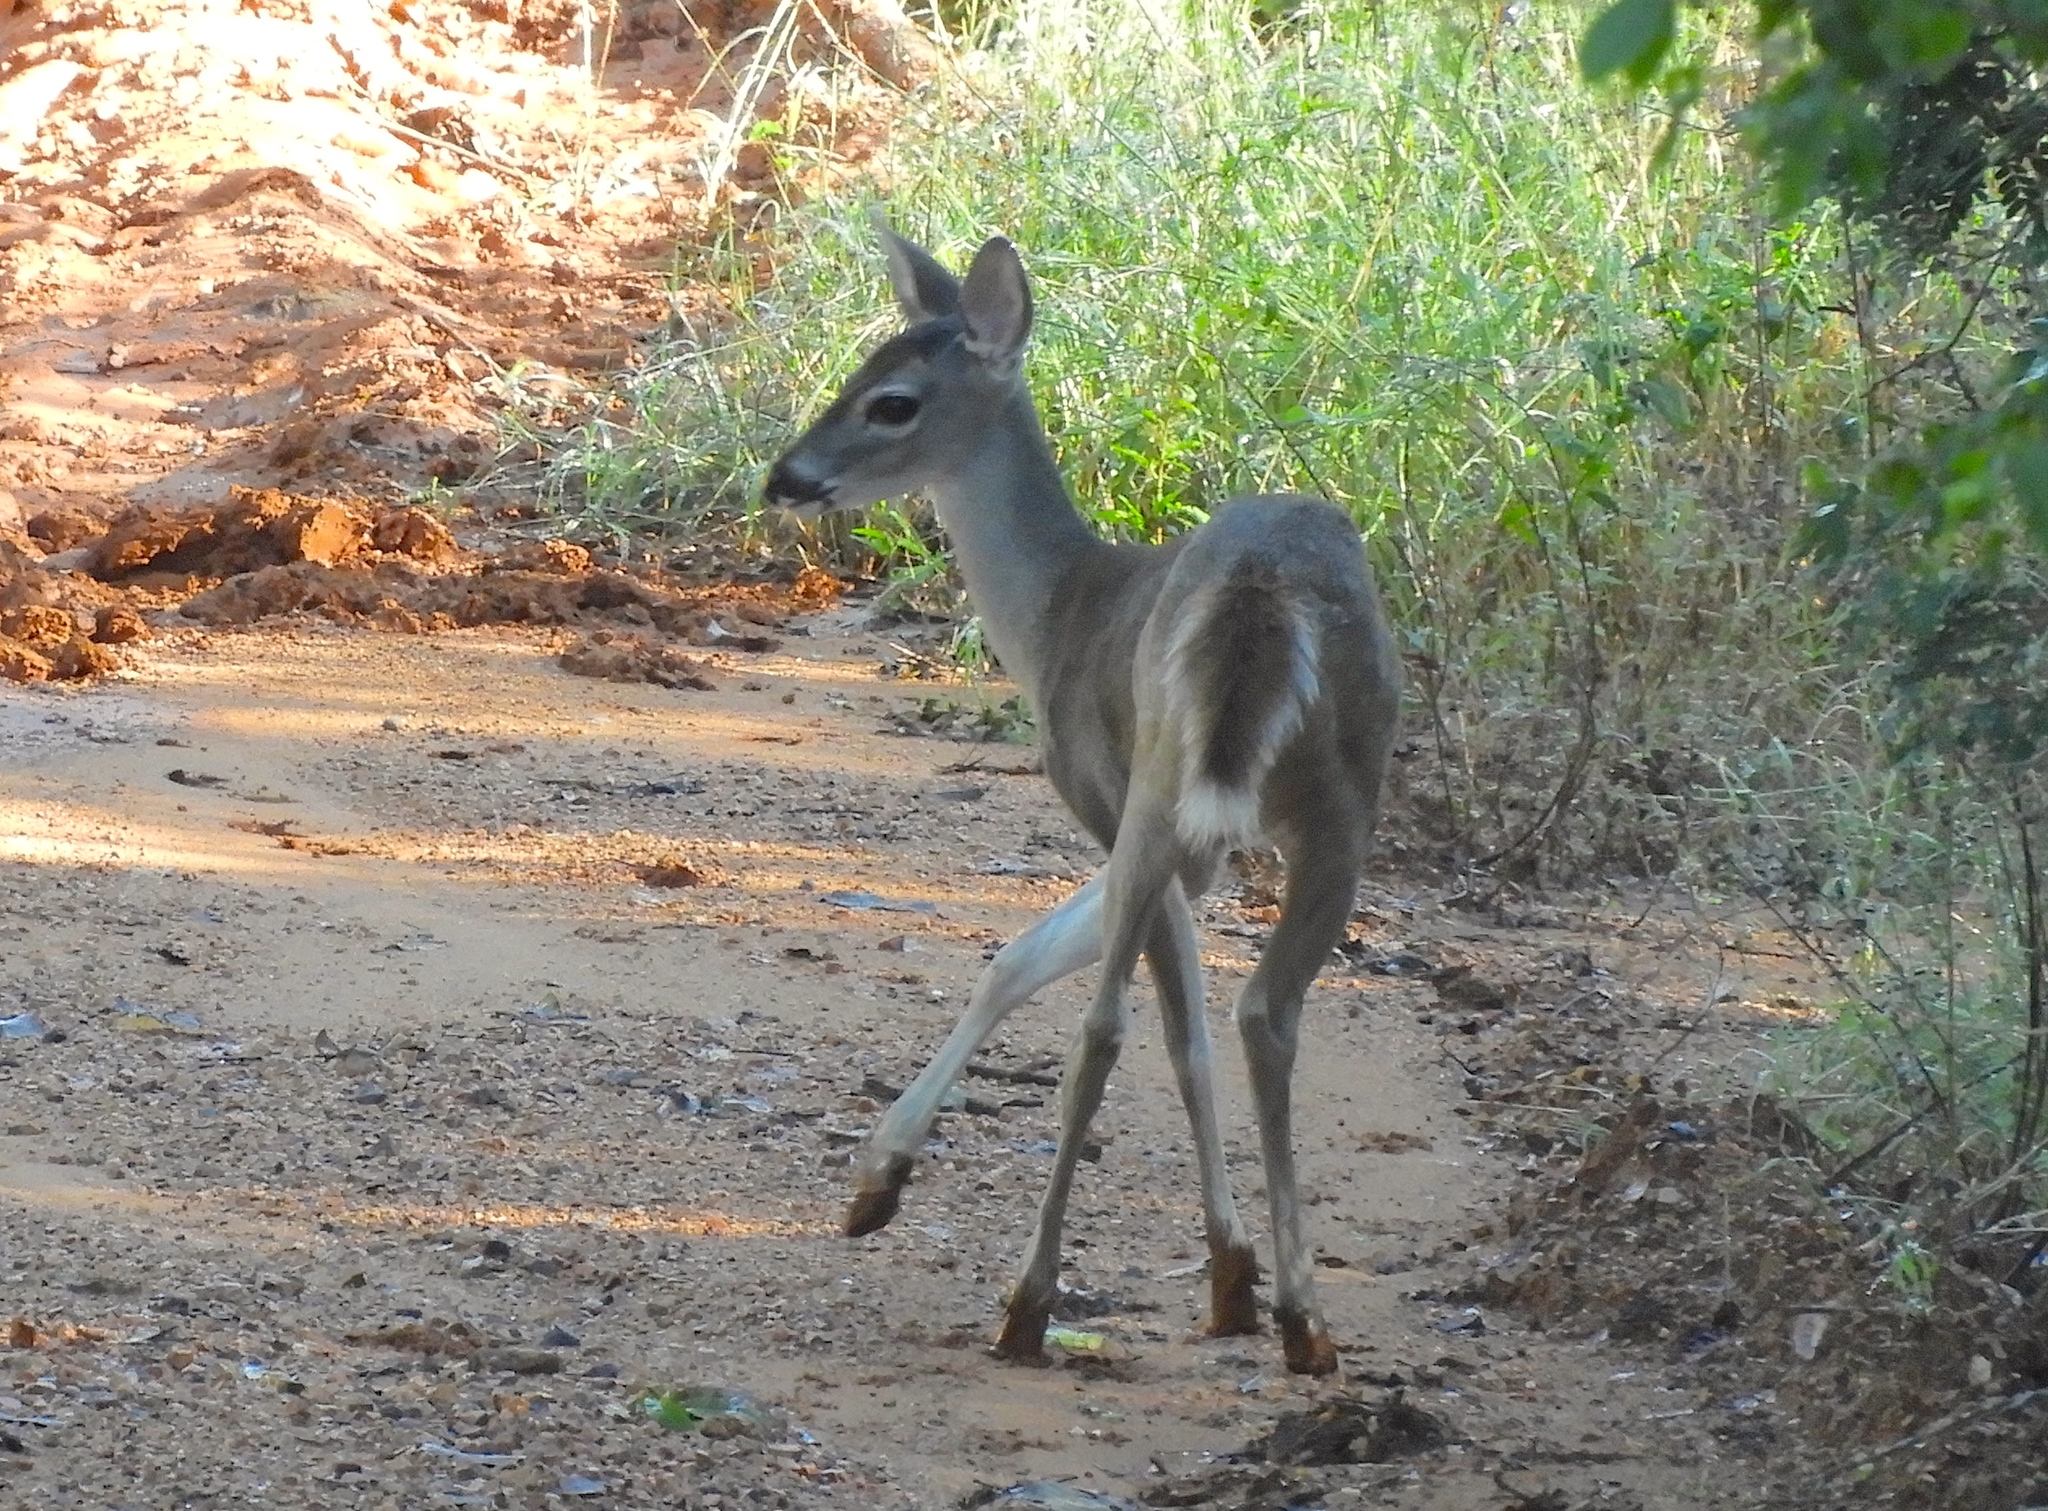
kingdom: Animalia
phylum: Chordata
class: Mammalia
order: Artiodactyla
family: Cervidae
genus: Odocoileus
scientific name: Odocoileus virginianus
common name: White-tailed deer
